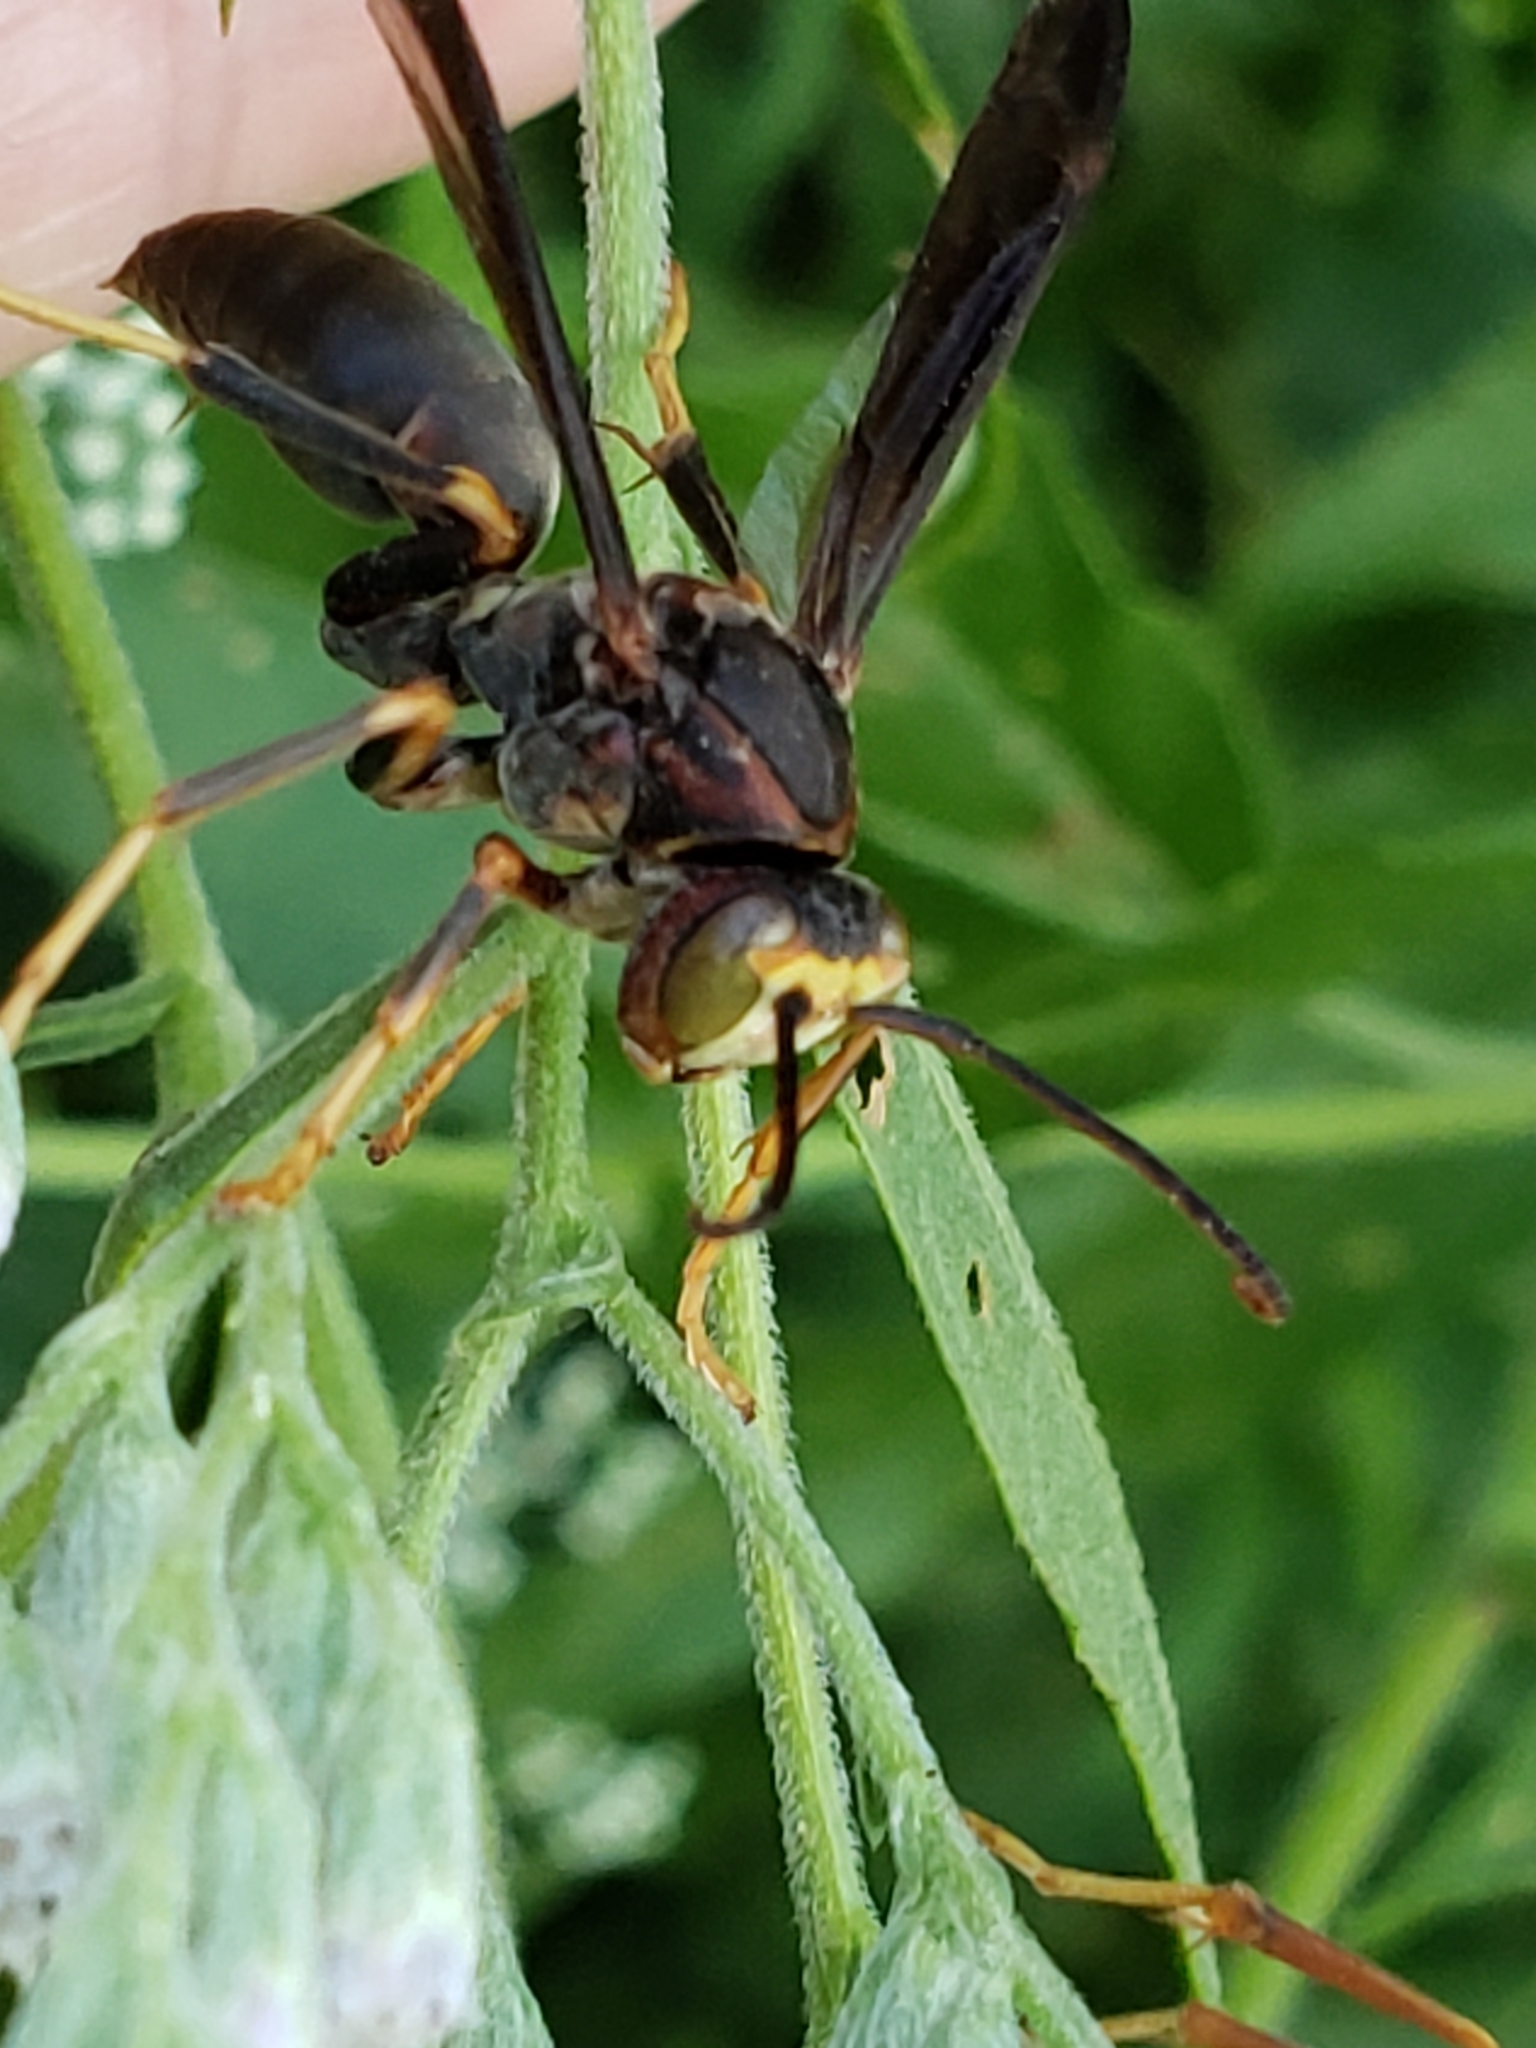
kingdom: Animalia
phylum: Arthropoda
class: Insecta
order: Hymenoptera
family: Eumenidae
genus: Polistes
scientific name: Polistes fuscatus
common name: Dark paper wasp
